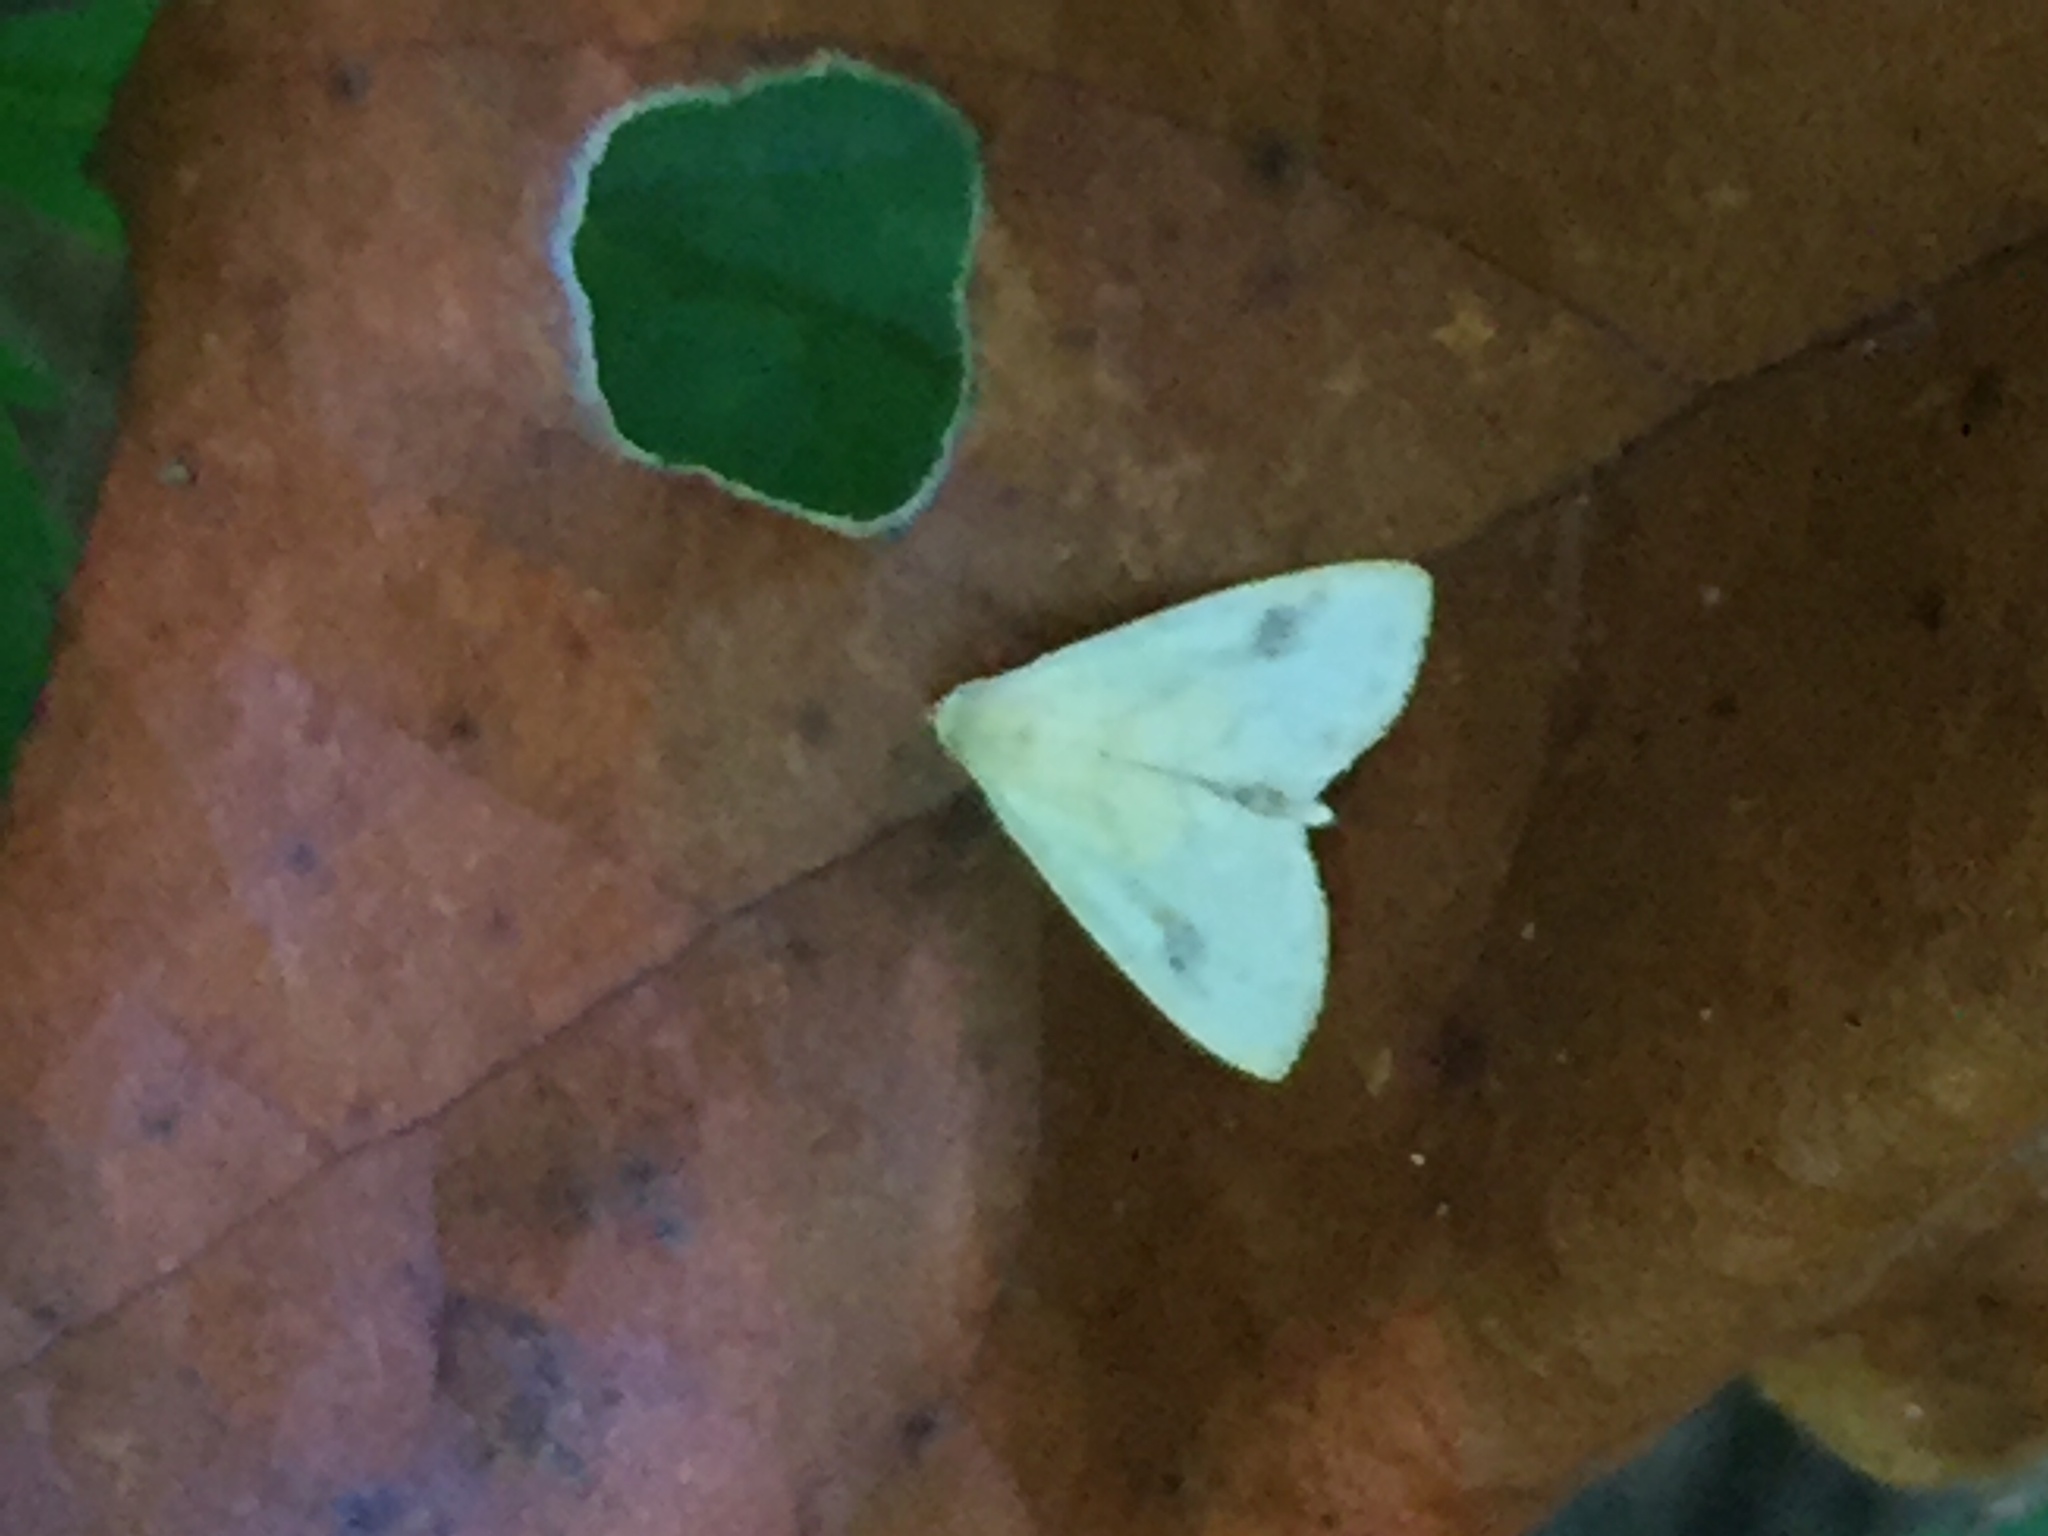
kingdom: Animalia
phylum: Arthropoda
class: Insecta
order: Lepidoptera
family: Erebidae
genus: Rivula
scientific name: Rivula propinqualis
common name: Spotted grass moth
